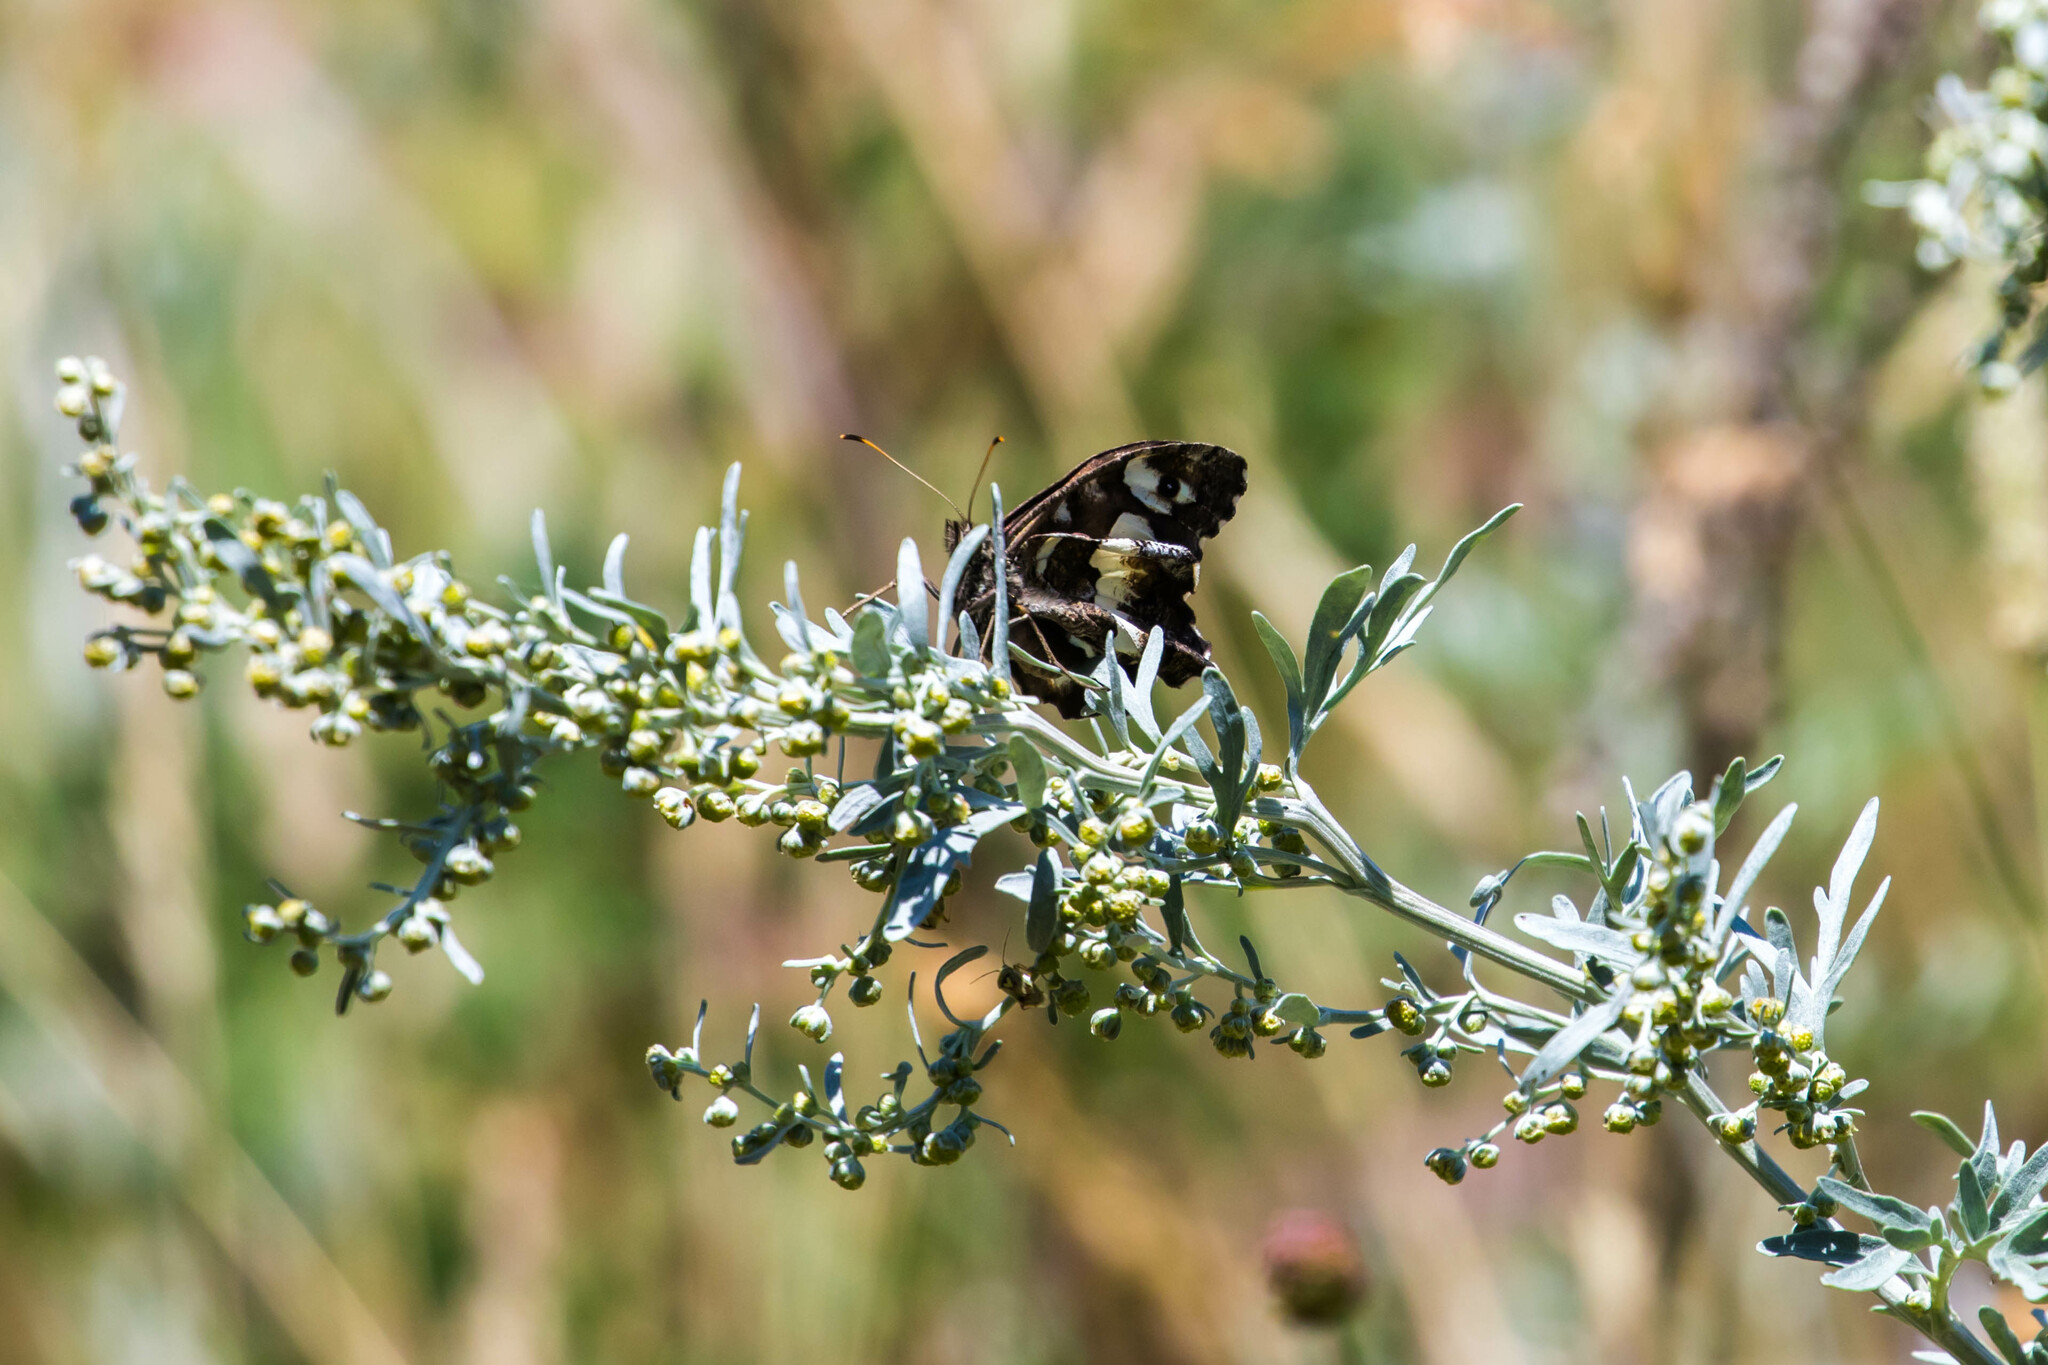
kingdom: Animalia
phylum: Arthropoda
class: Insecta
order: Lepidoptera
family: Lycaenidae
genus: Loweia
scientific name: Loweia tityrus
